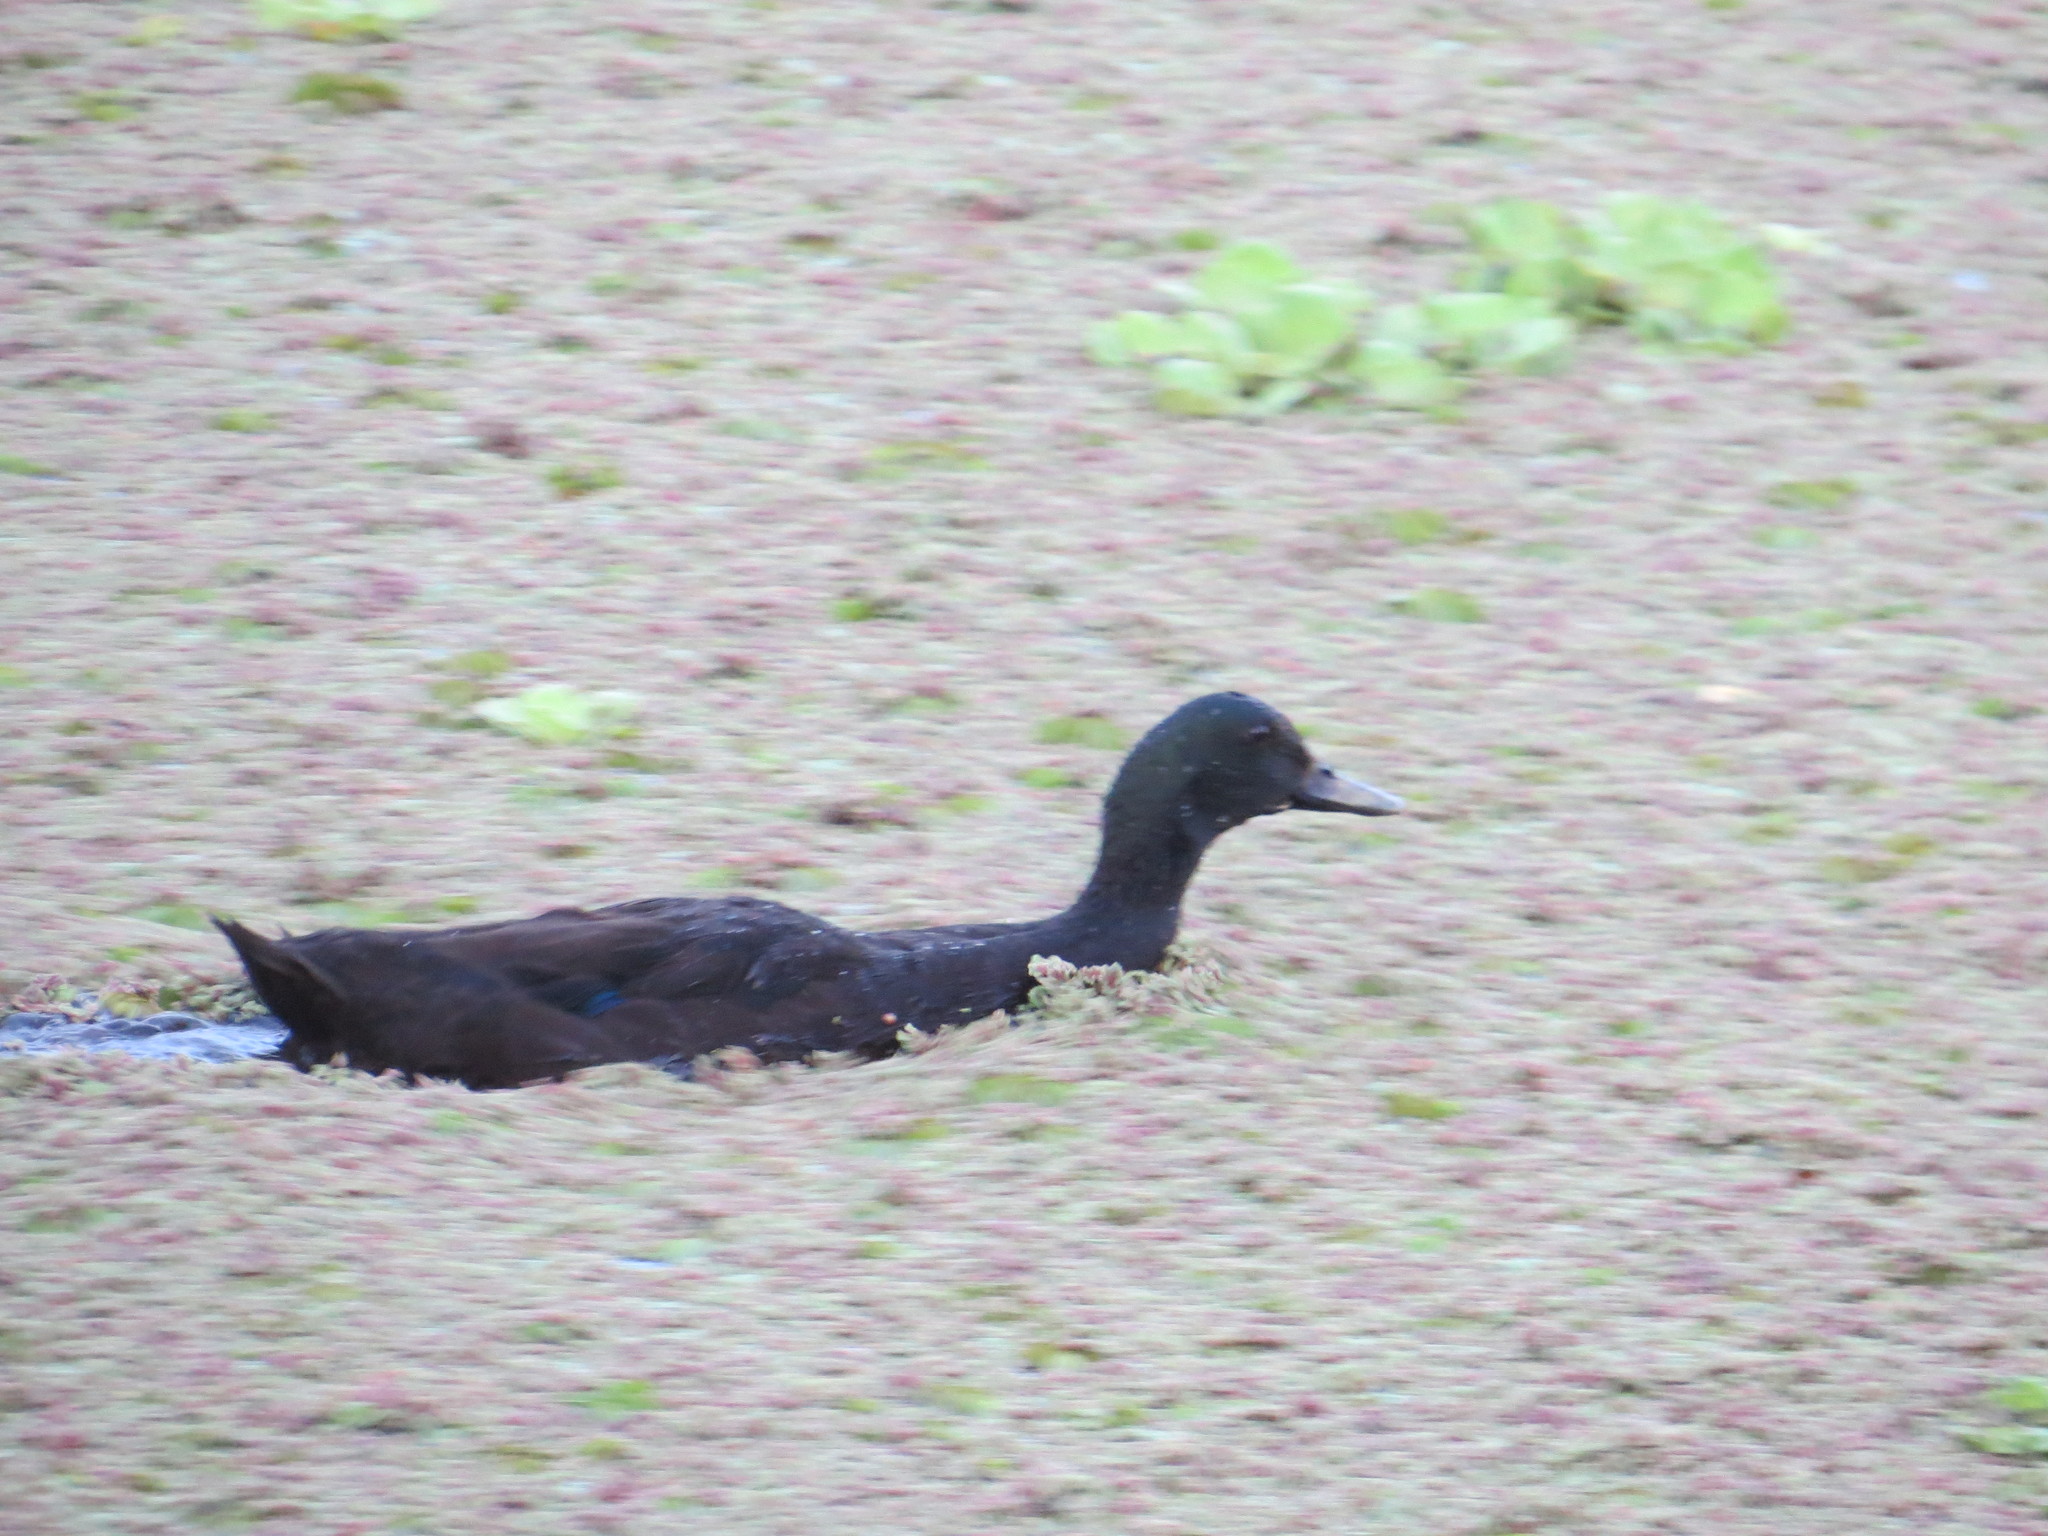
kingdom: Animalia
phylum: Chordata
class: Aves
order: Anseriformes
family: Anatidae
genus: Anas
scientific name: Anas platyrhynchos
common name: Mallard
